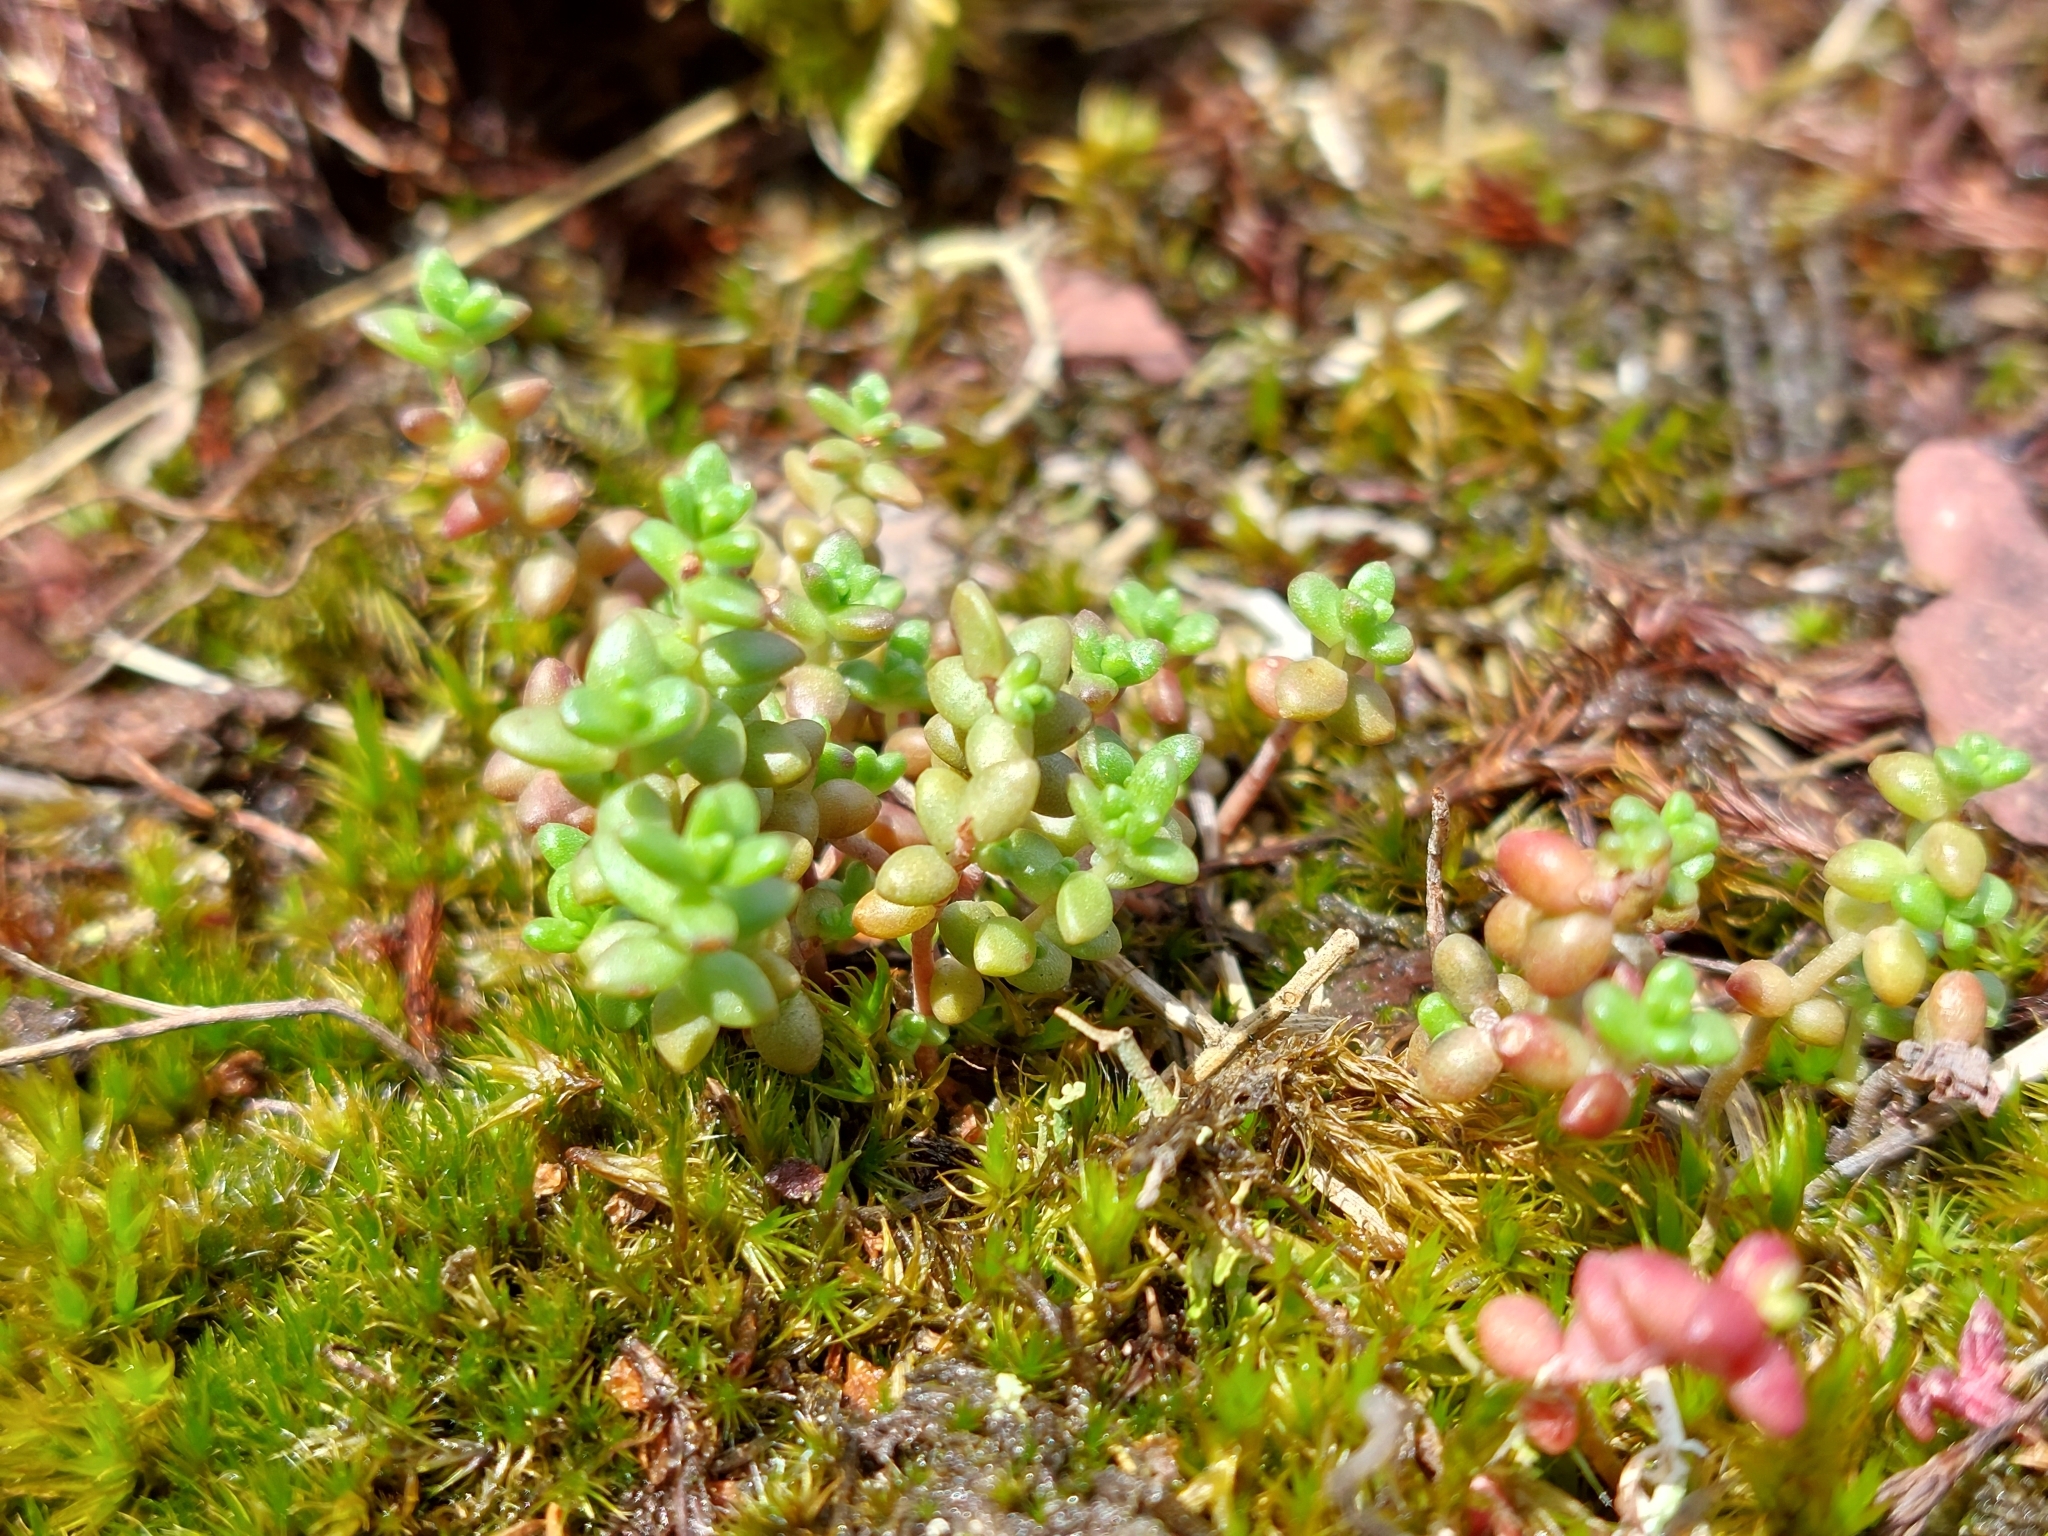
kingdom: Plantae
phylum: Tracheophyta
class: Magnoliopsida
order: Saxifragales
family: Crassulaceae
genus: Sedum
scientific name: Sedum anglicum
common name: English stonecrop
